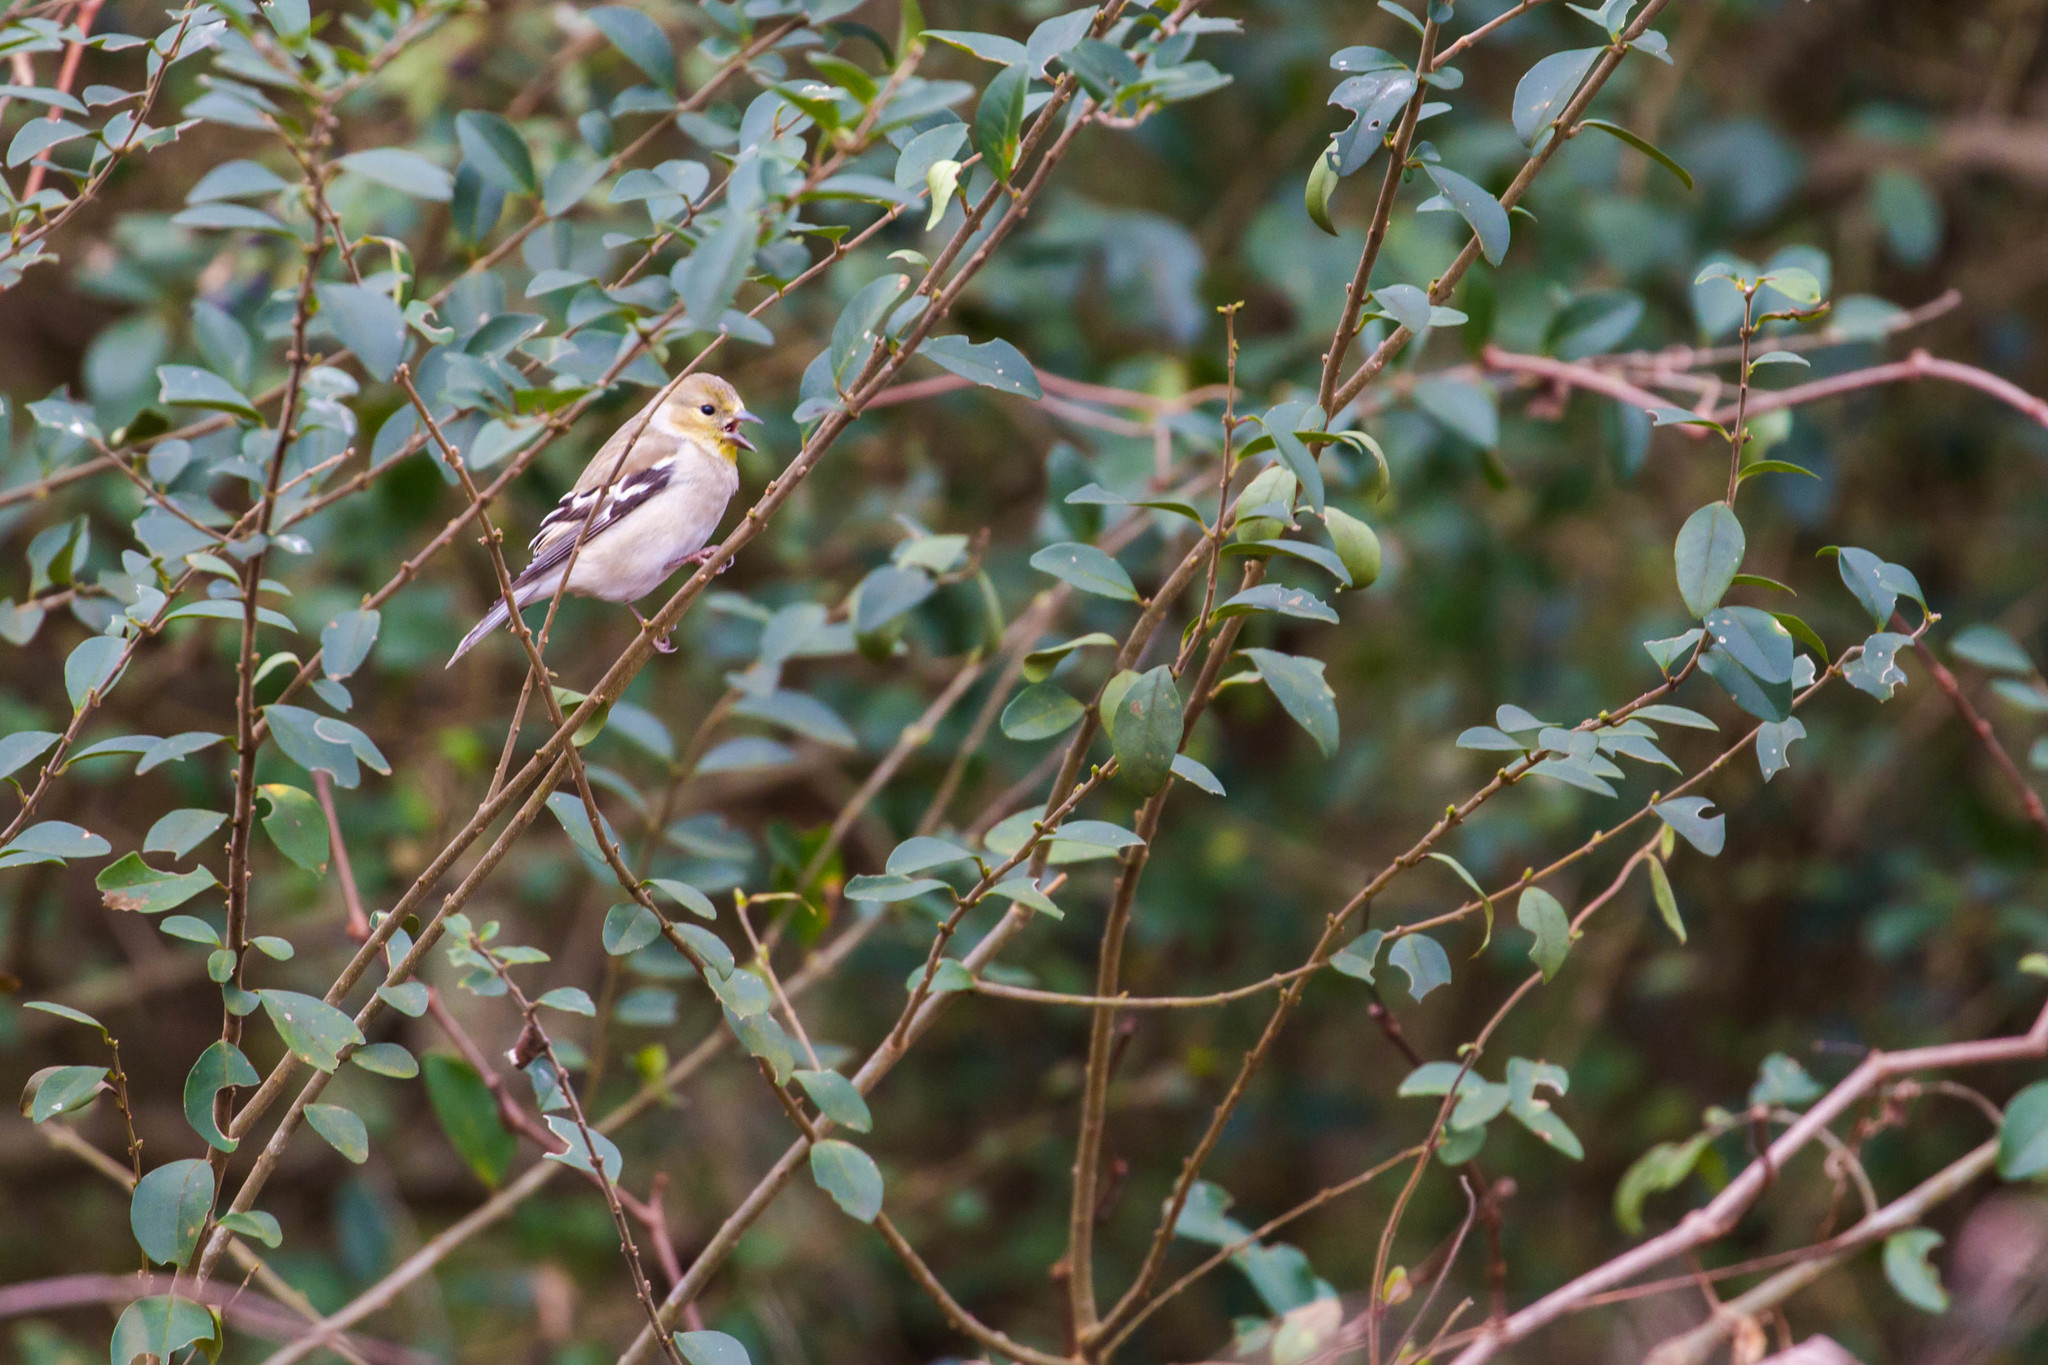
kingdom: Animalia
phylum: Chordata
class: Aves
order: Passeriformes
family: Fringillidae
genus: Spinus
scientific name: Spinus tristis
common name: American goldfinch
